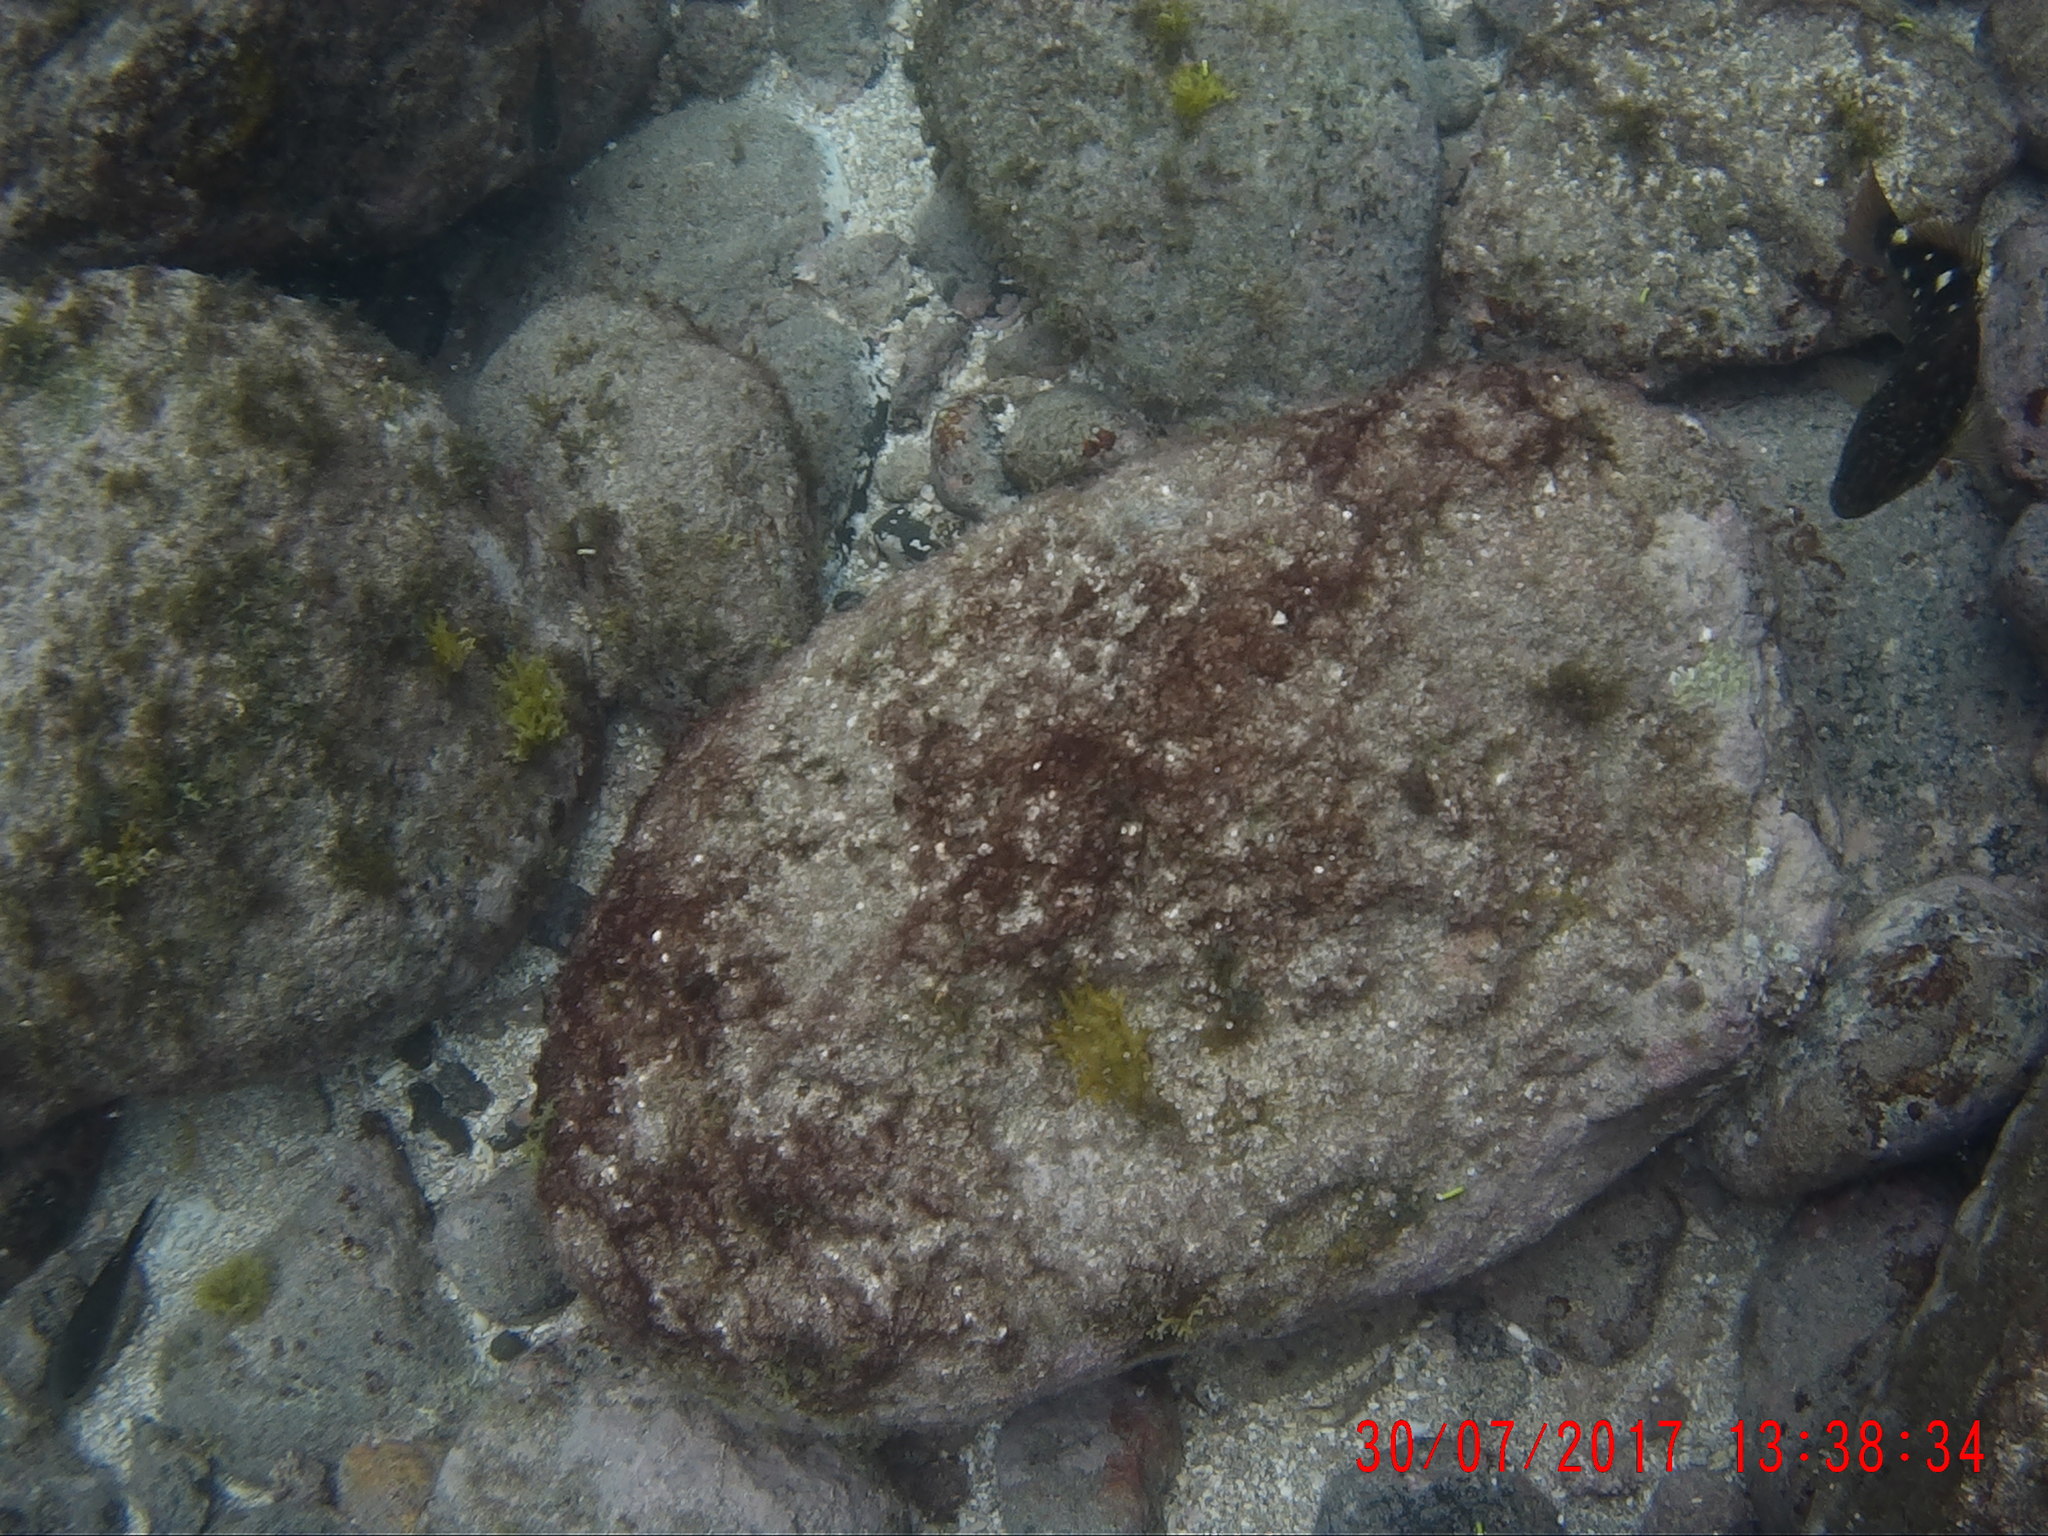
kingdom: Animalia
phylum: Chordata
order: Perciformes
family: Cirrhitidae
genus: Cirrhitus
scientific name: Cirrhitus atlanticus
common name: West african hawkfish
